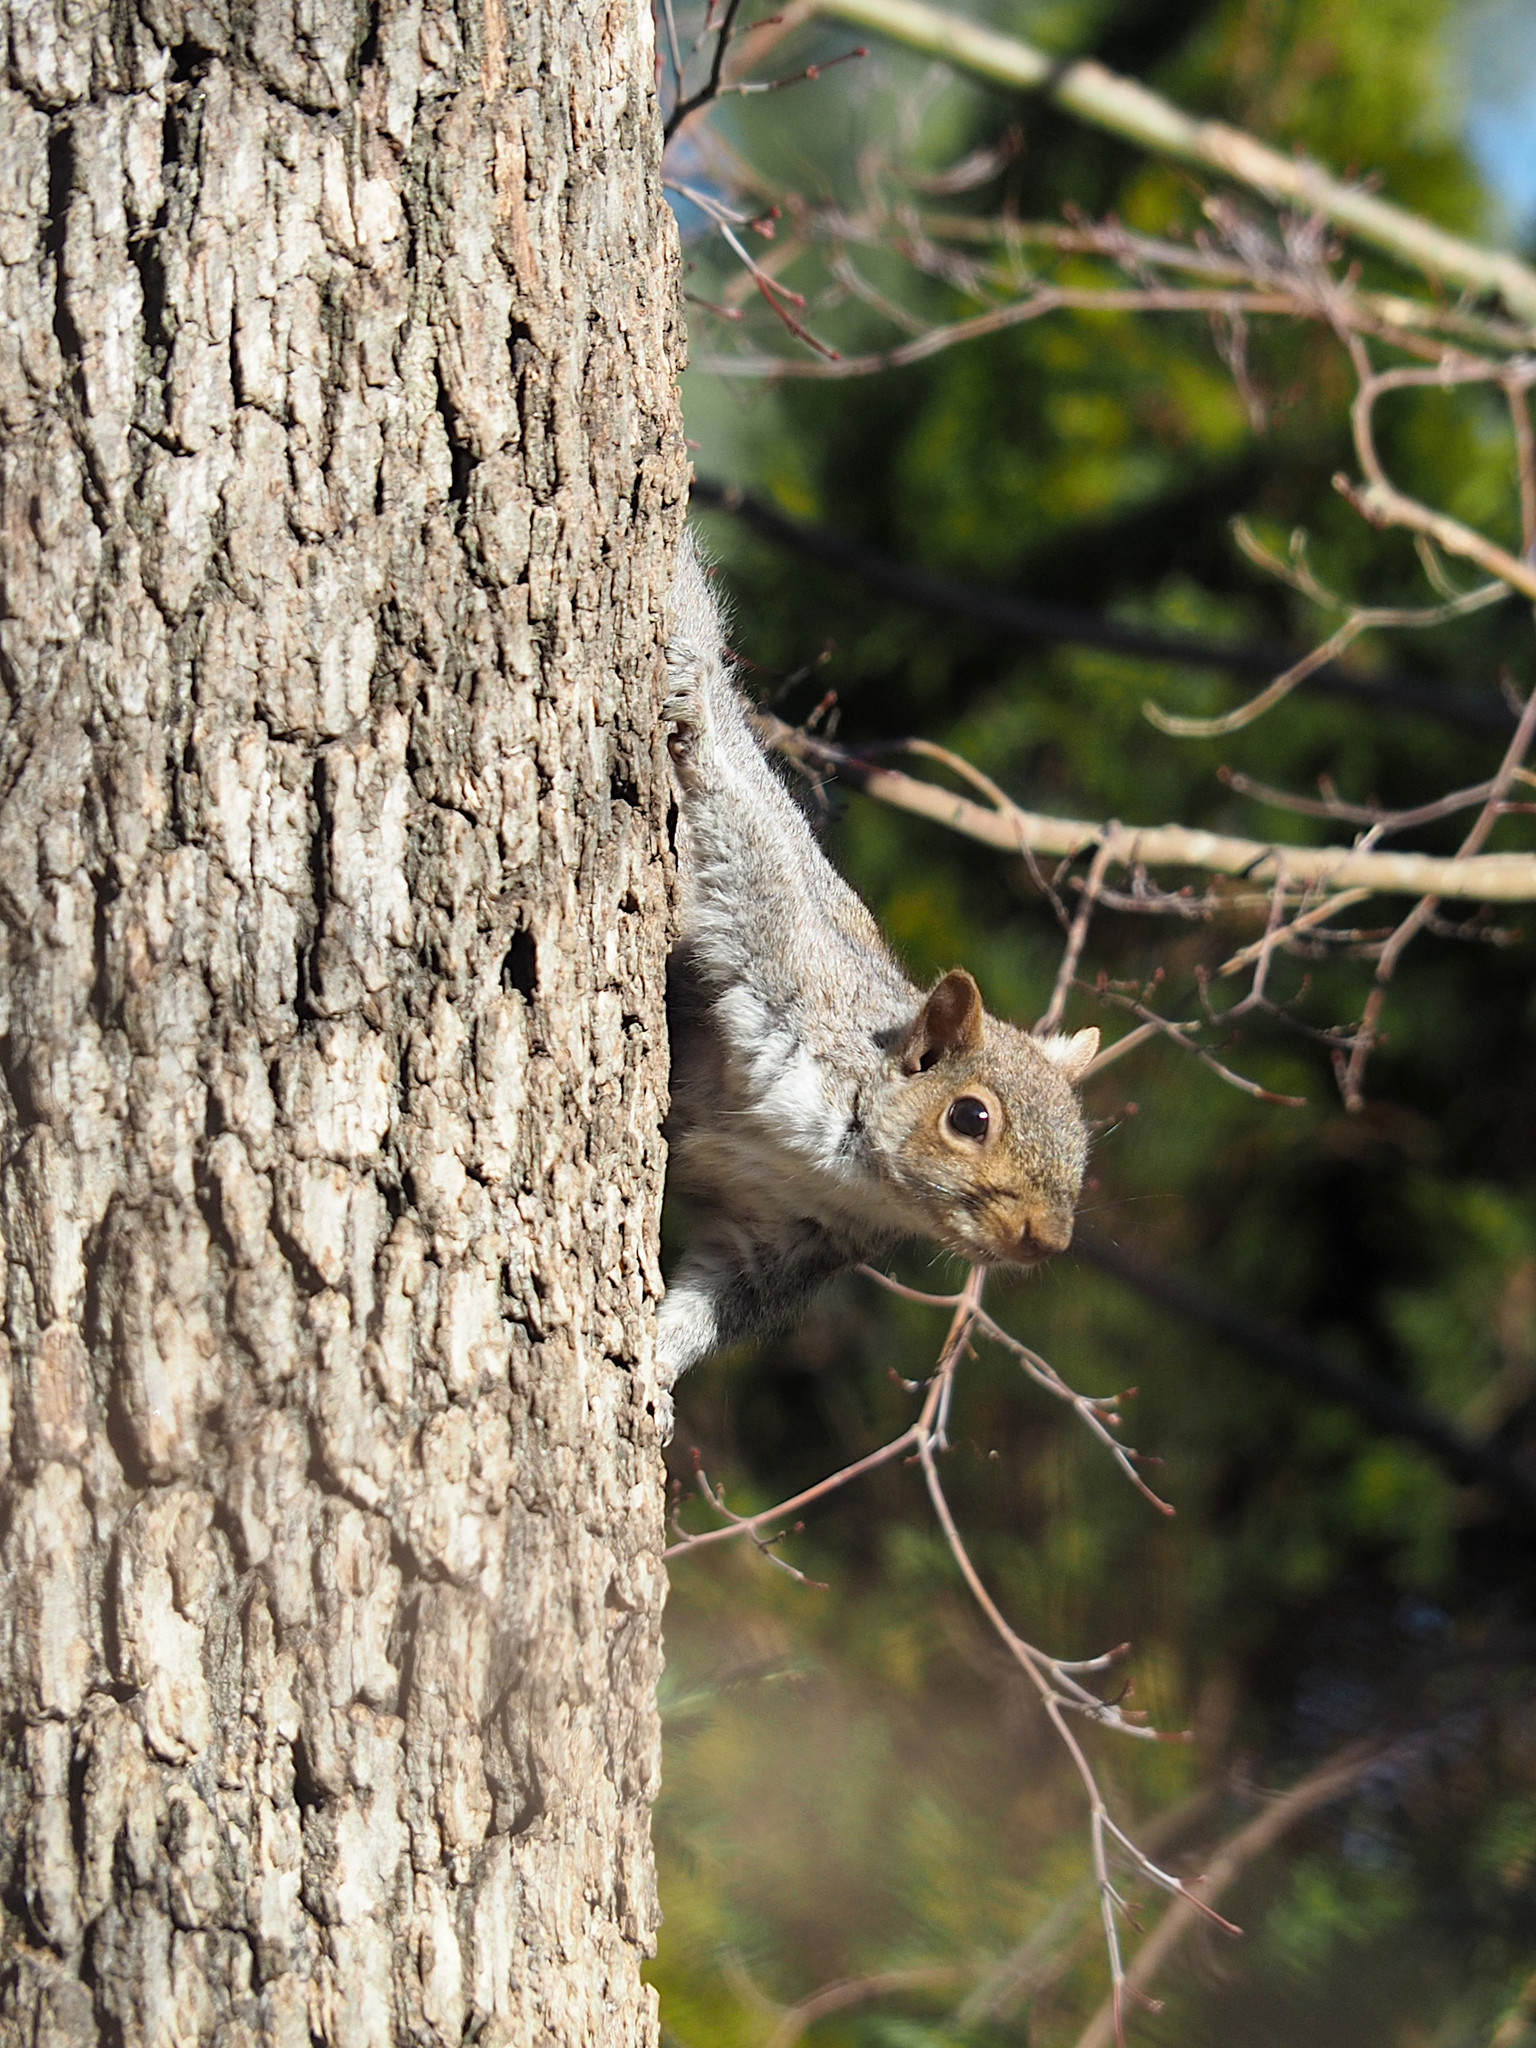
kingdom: Animalia
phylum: Chordata
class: Mammalia
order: Rodentia
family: Sciuridae
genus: Sciurus
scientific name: Sciurus carolinensis
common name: Eastern gray squirrel
